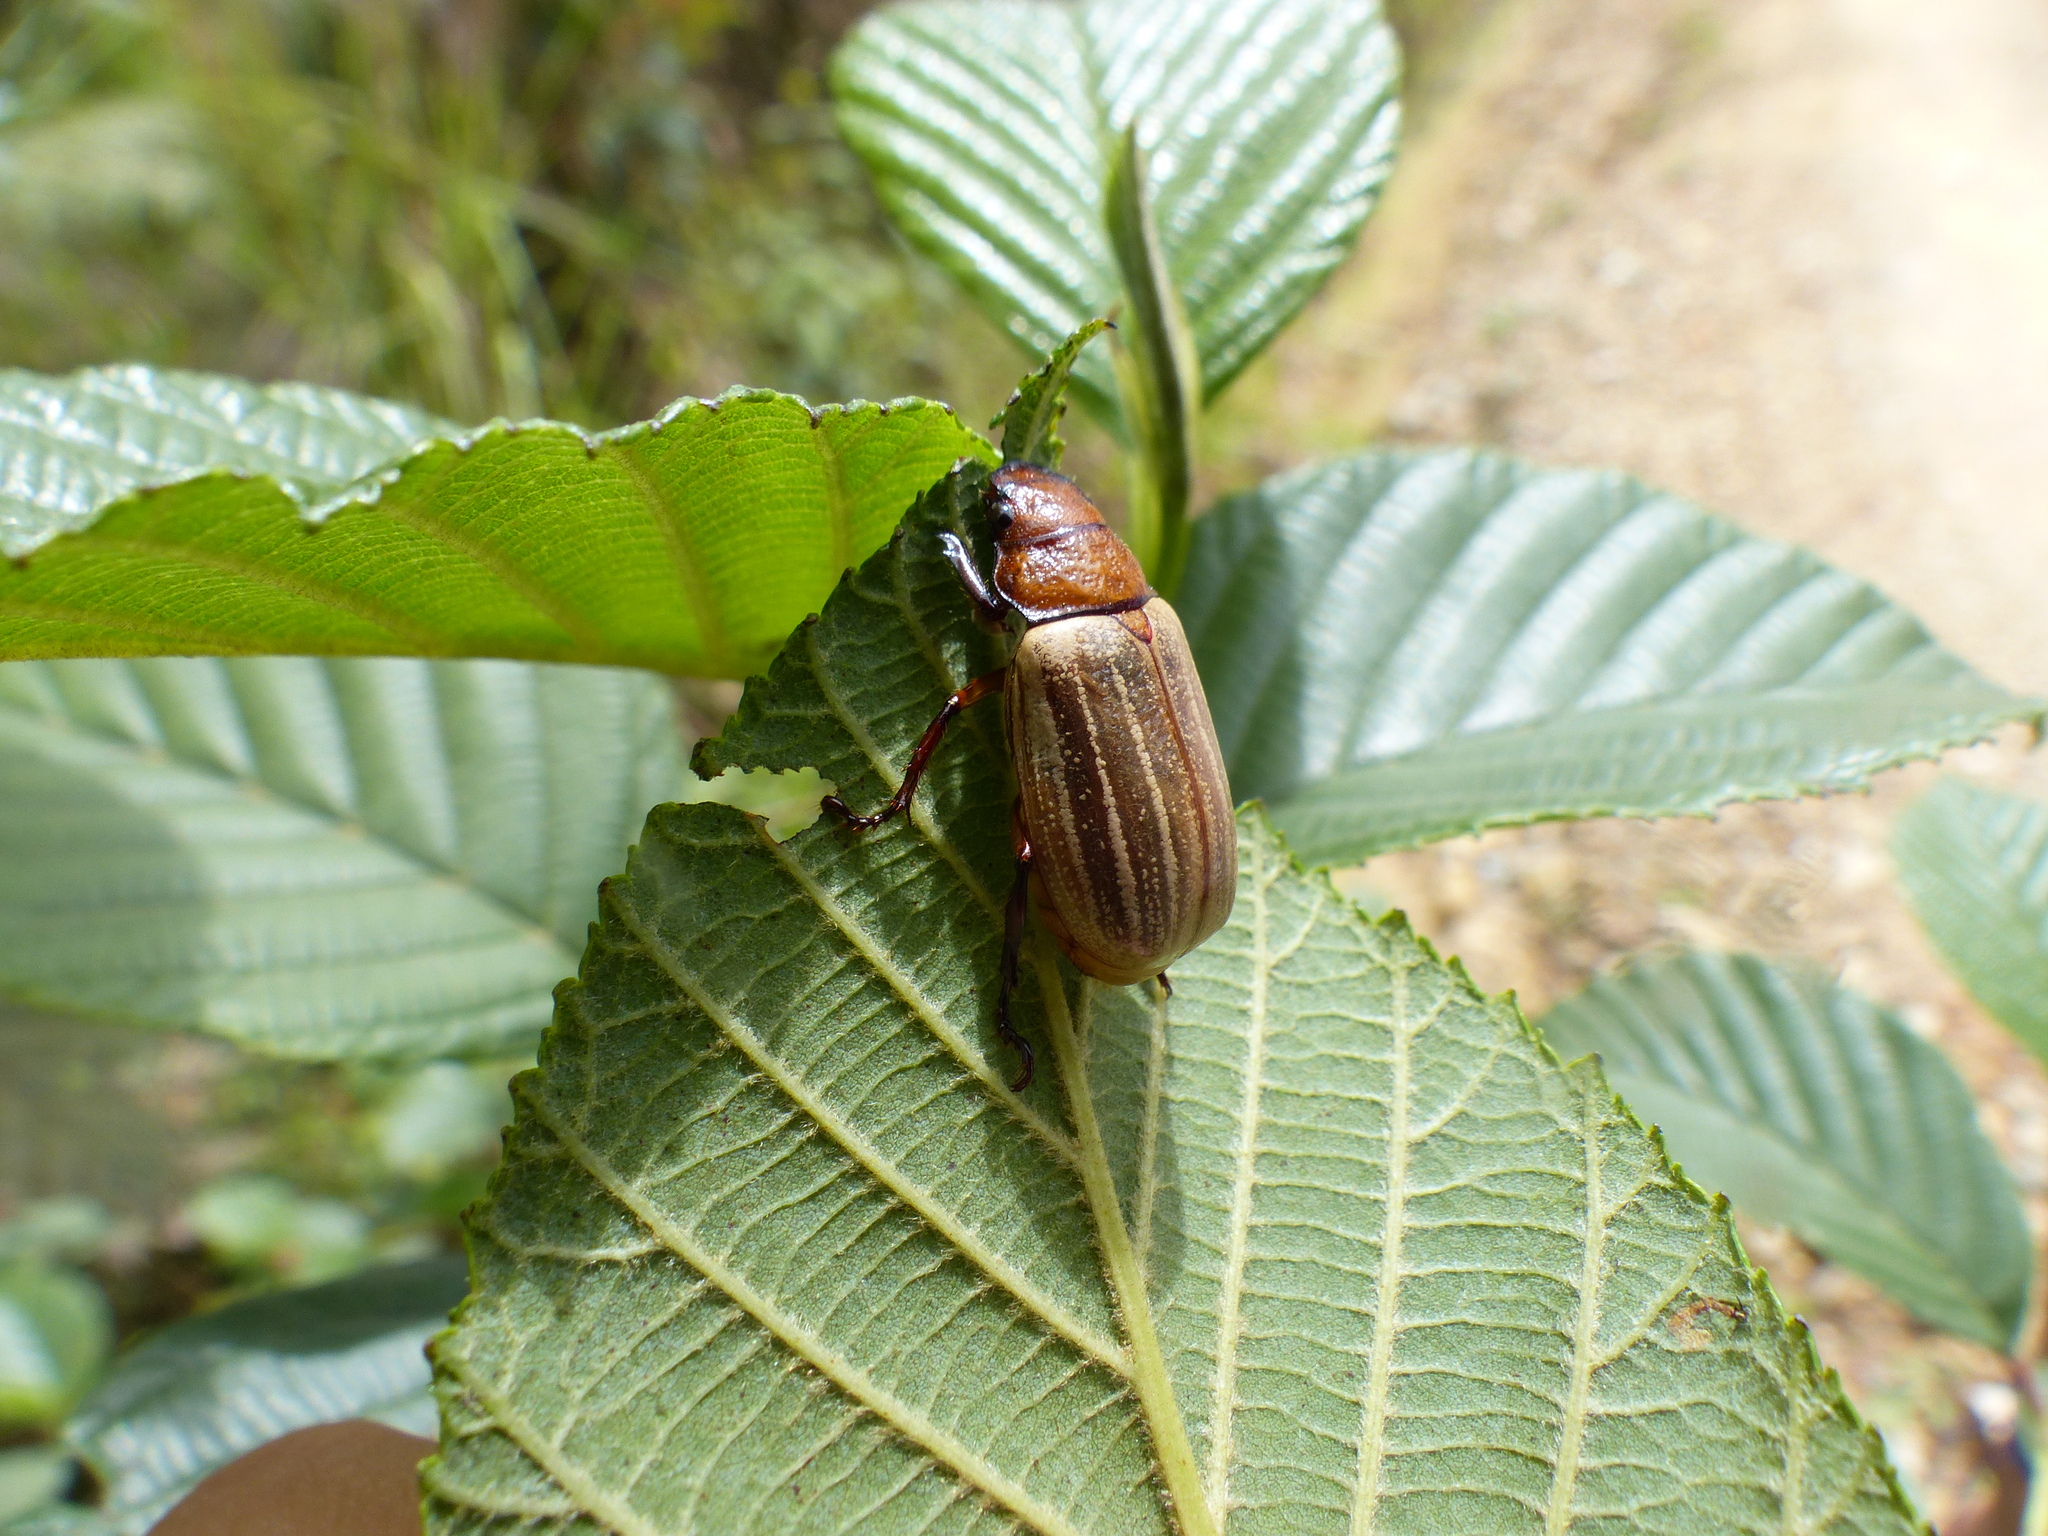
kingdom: Animalia
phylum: Arthropoda
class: Insecta
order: Coleoptera
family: Scarabaeidae
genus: Bolax
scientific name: Bolax meyeri
